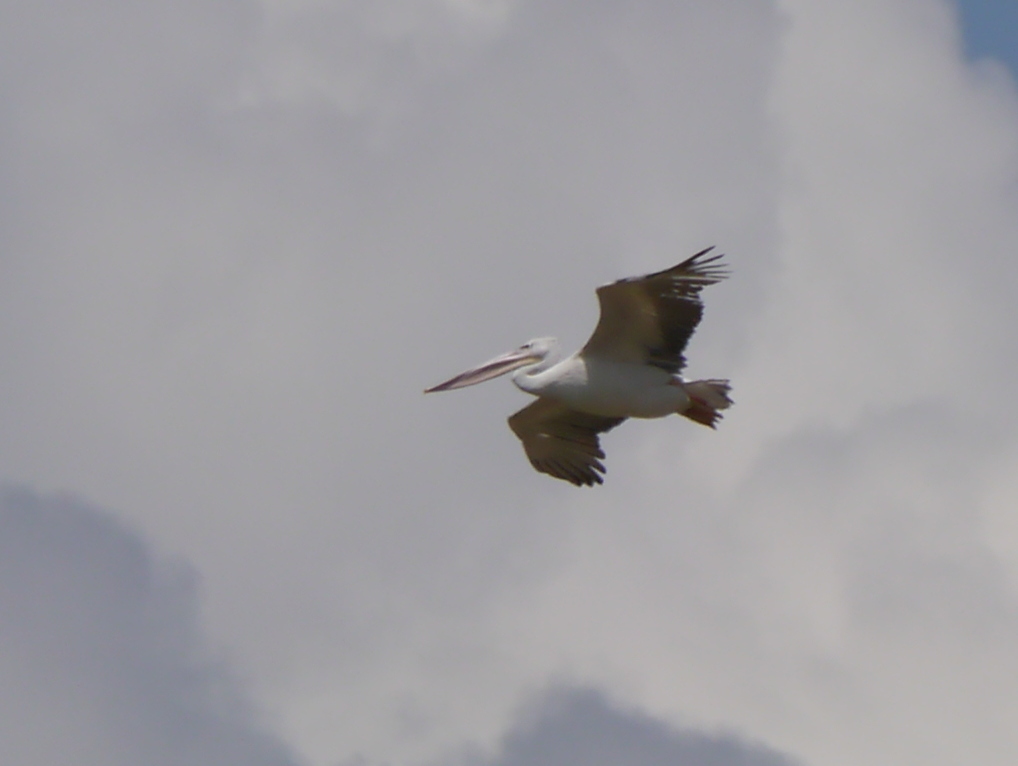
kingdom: Animalia
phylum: Chordata
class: Aves
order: Pelecaniformes
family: Pelecanidae
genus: Pelecanus
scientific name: Pelecanus rufescens
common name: Pink-backed pelican
